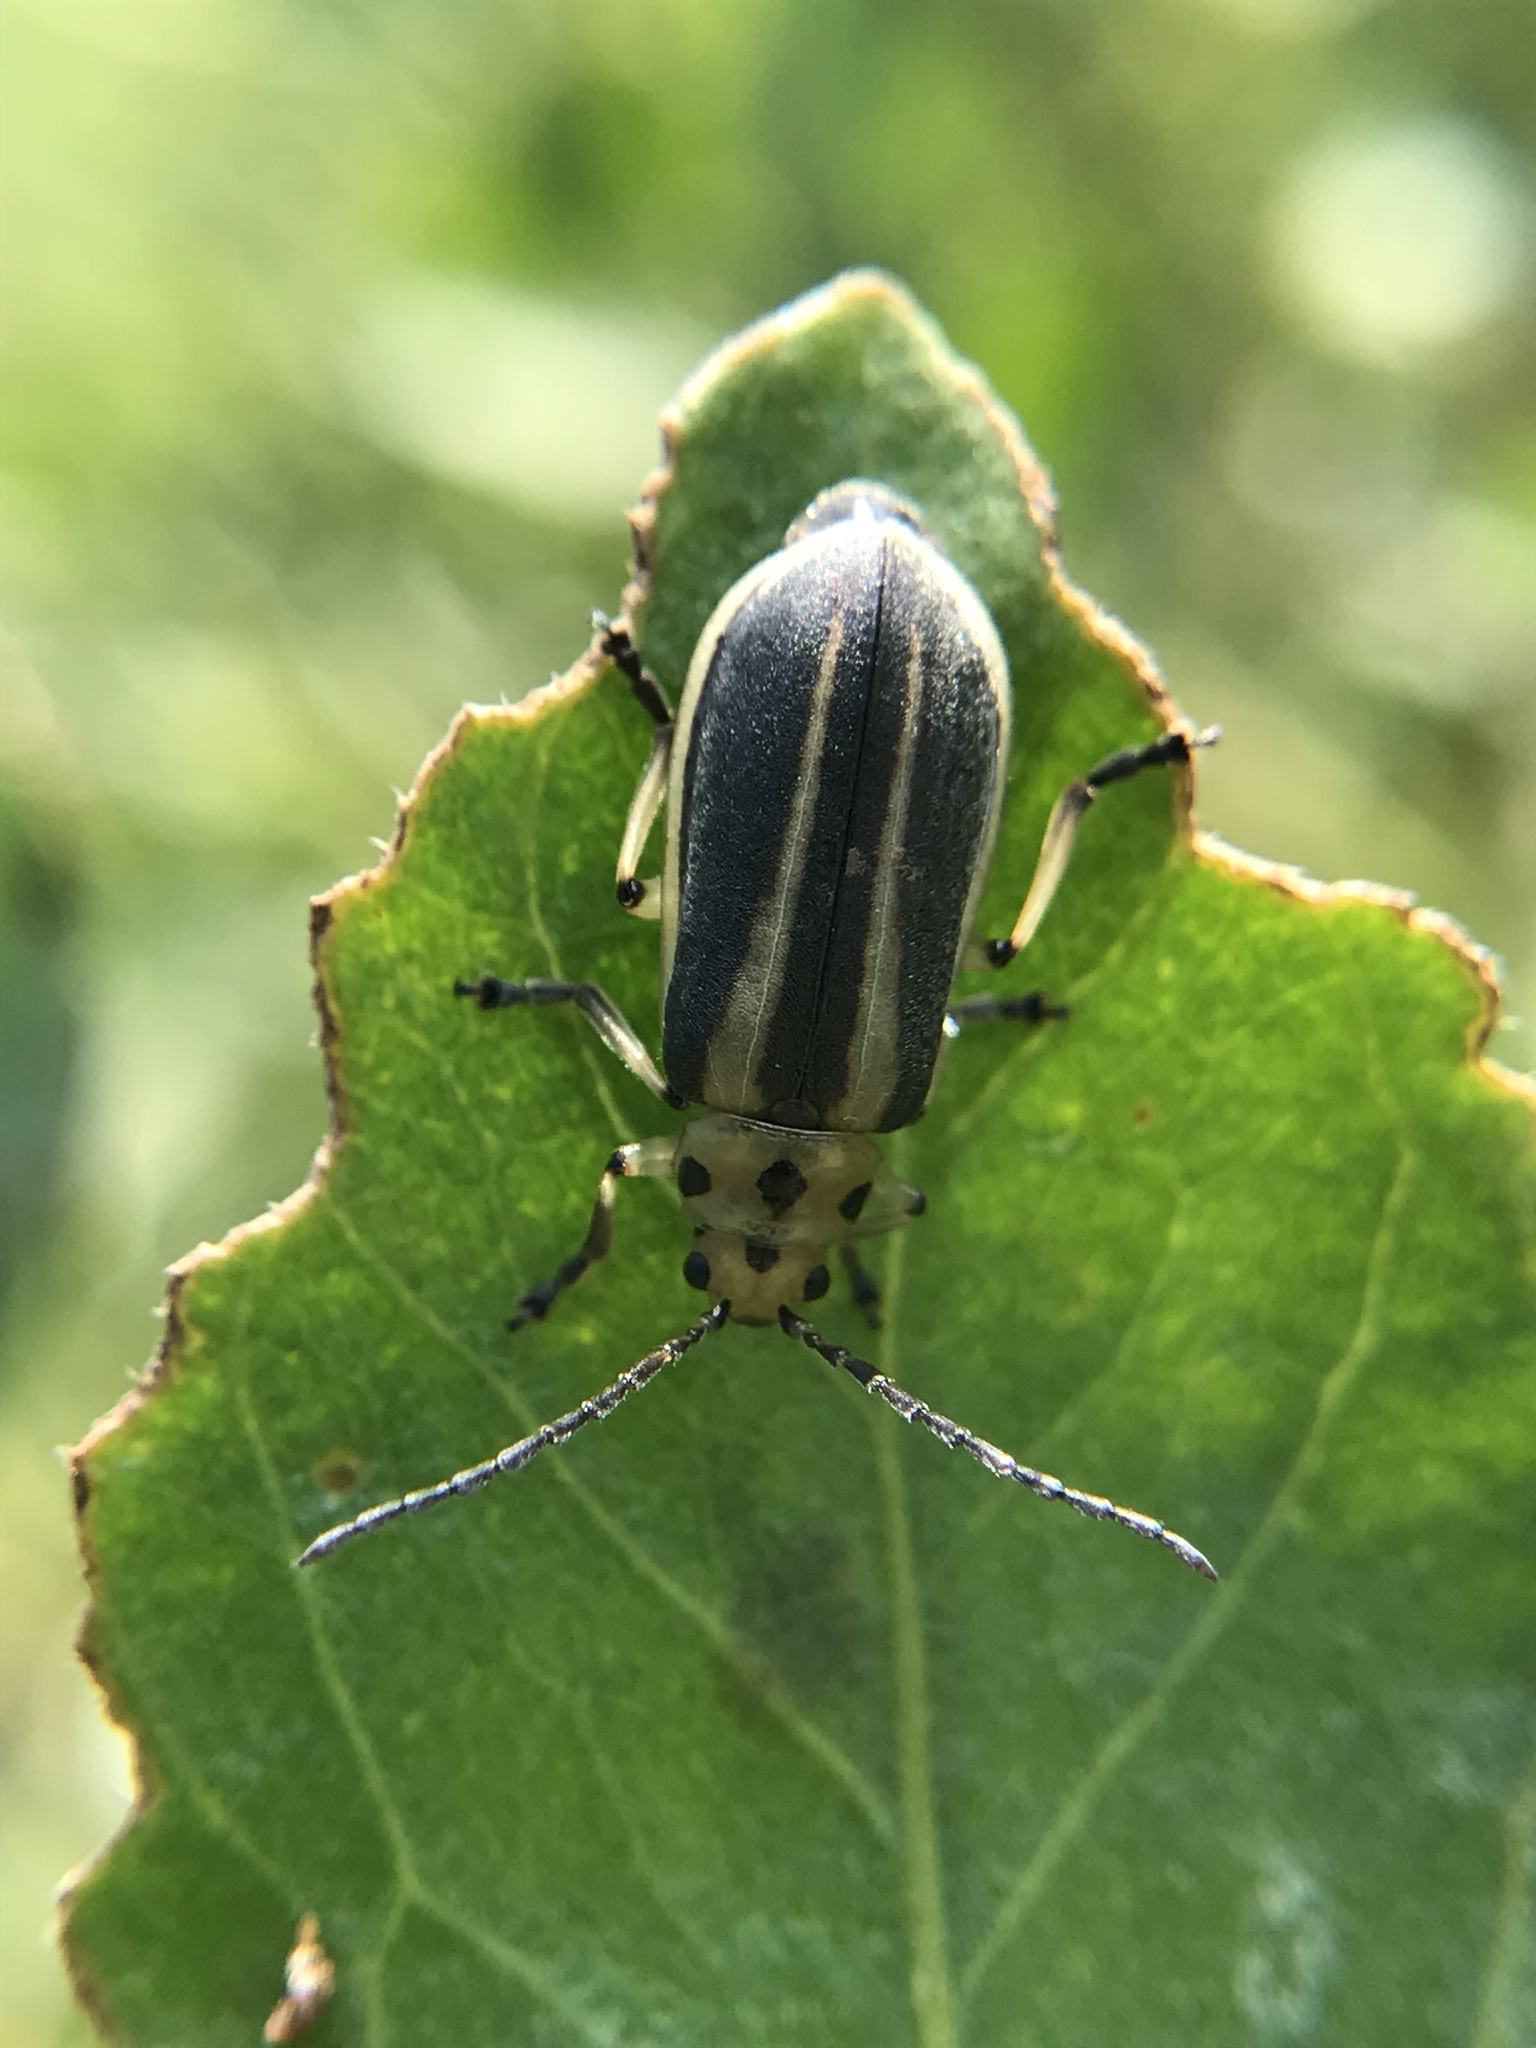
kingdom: Animalia
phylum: Arthropoda
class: Insecta
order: Coleoptera
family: Chrysomelidae
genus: Trirhabda
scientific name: Trirhabda bacharidis
